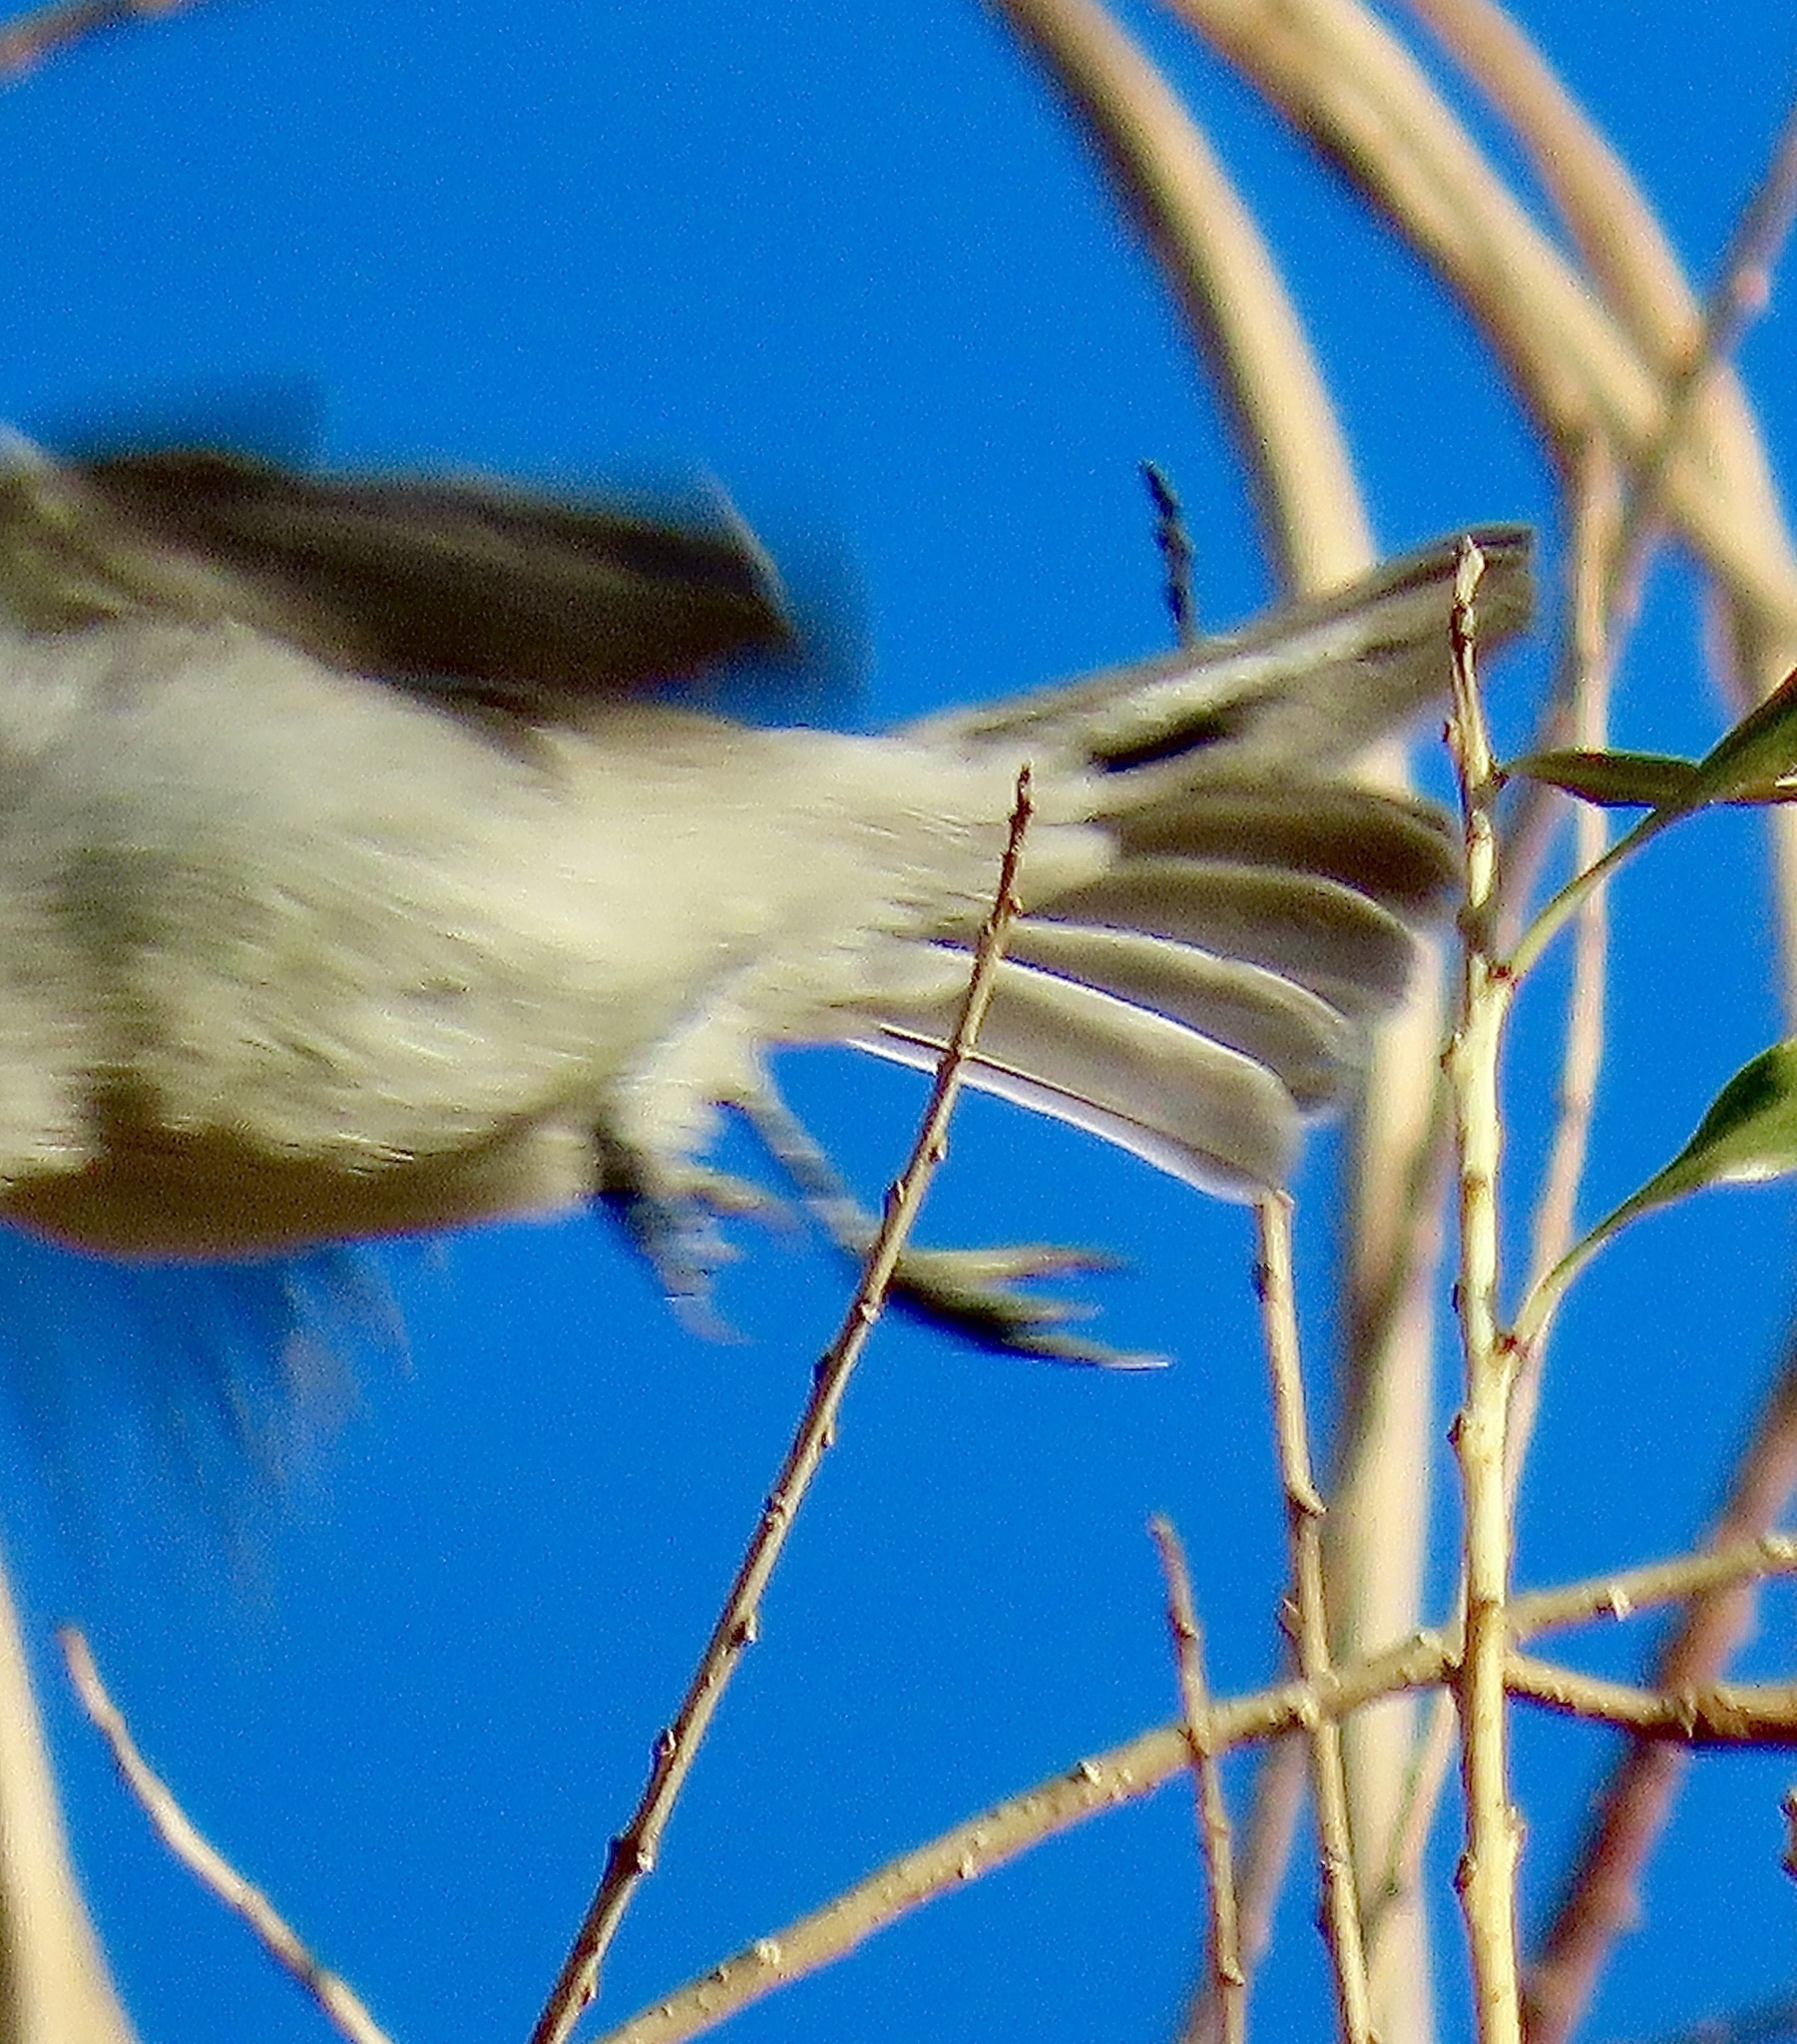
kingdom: Animalia
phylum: Chordata
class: Aves
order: Passeriformes
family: Polioptilidae
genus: Polioptila
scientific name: Polioptila caerulea
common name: Blue-gray gnatcatcher
